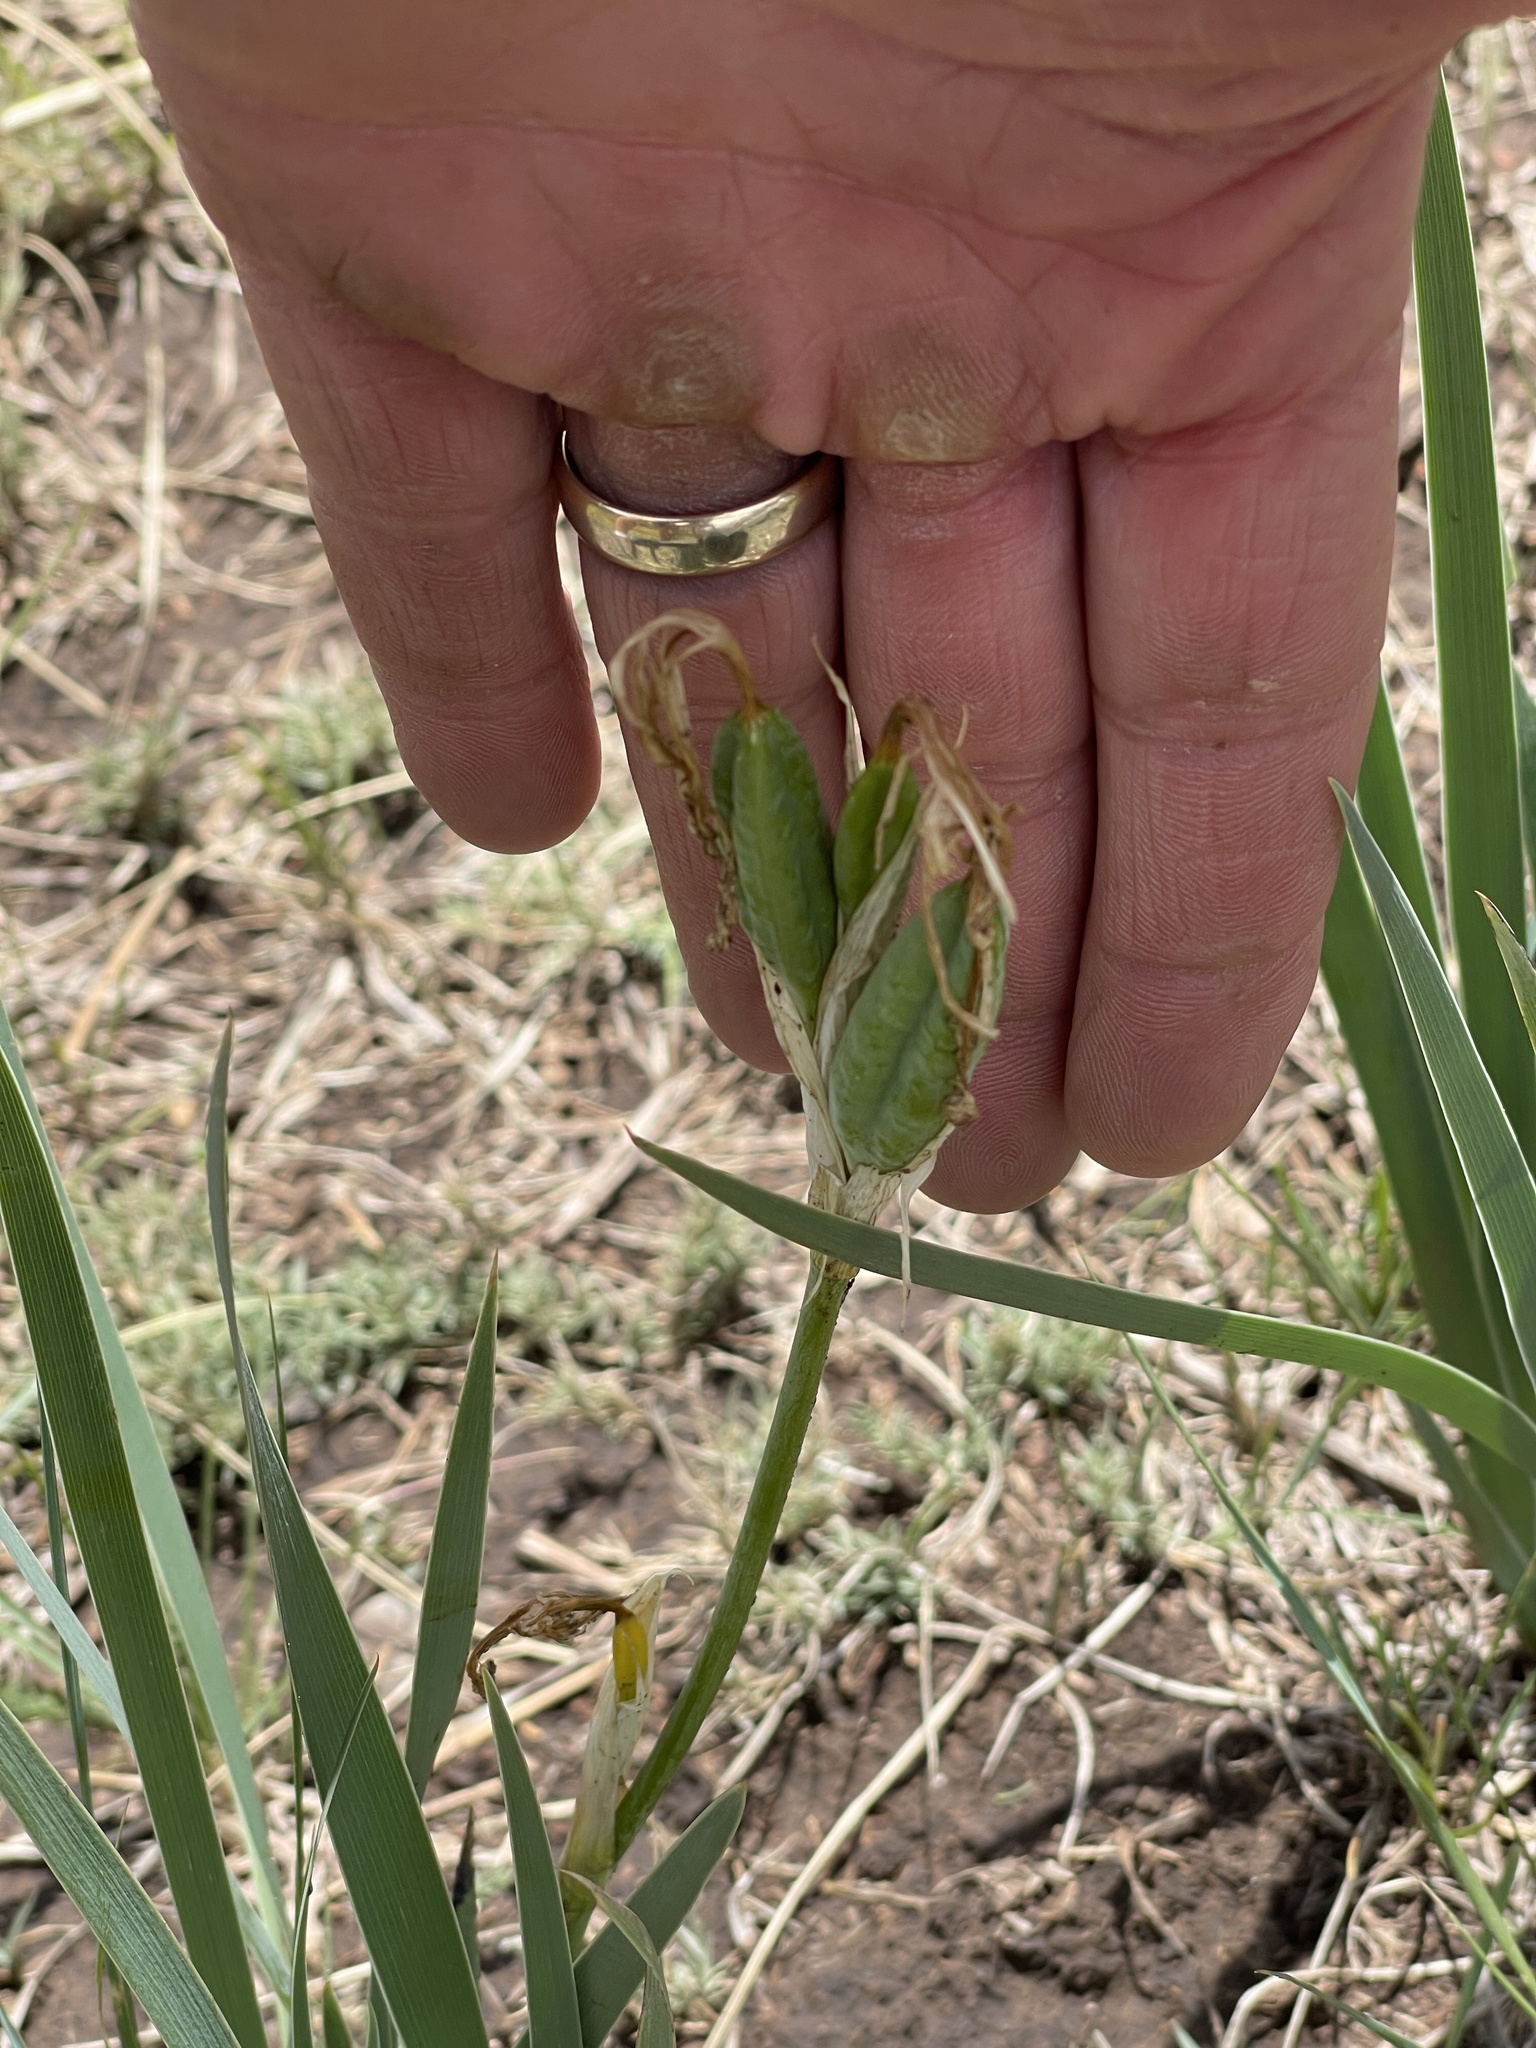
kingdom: Plantae
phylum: Tracheophyta
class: Liliopsida
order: Asparagales
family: Iridaceae
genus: Iris
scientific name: Iris missouriensis
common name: Rocky mountain iris
